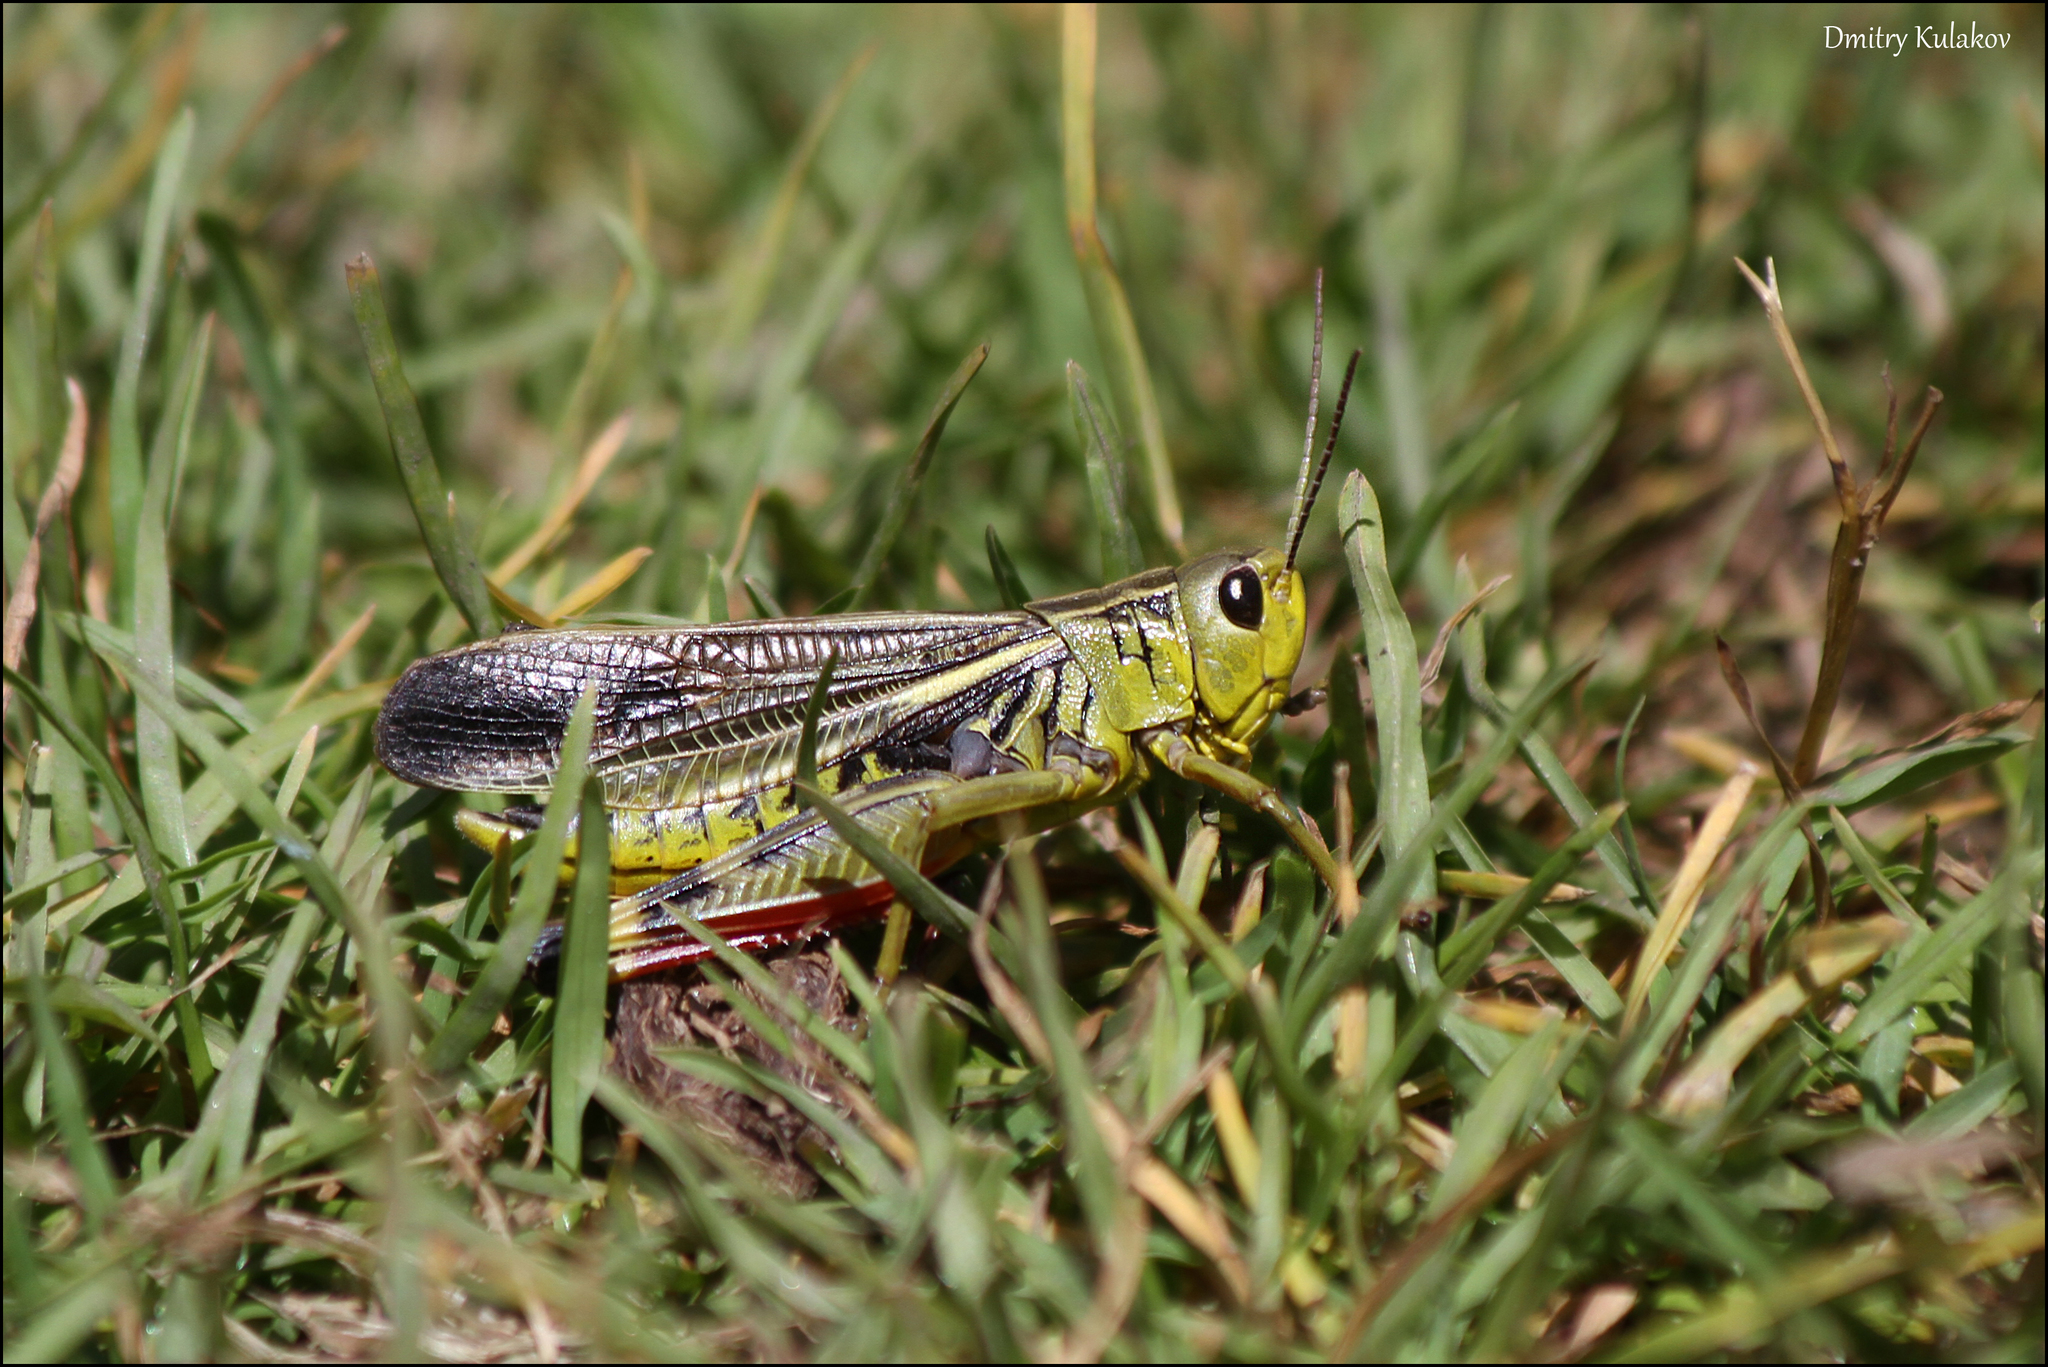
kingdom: Animalia
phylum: Arthropoda
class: Insecta
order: Orthoptera
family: Acrididae
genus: Arcyptera
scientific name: Arcyptera fusca
